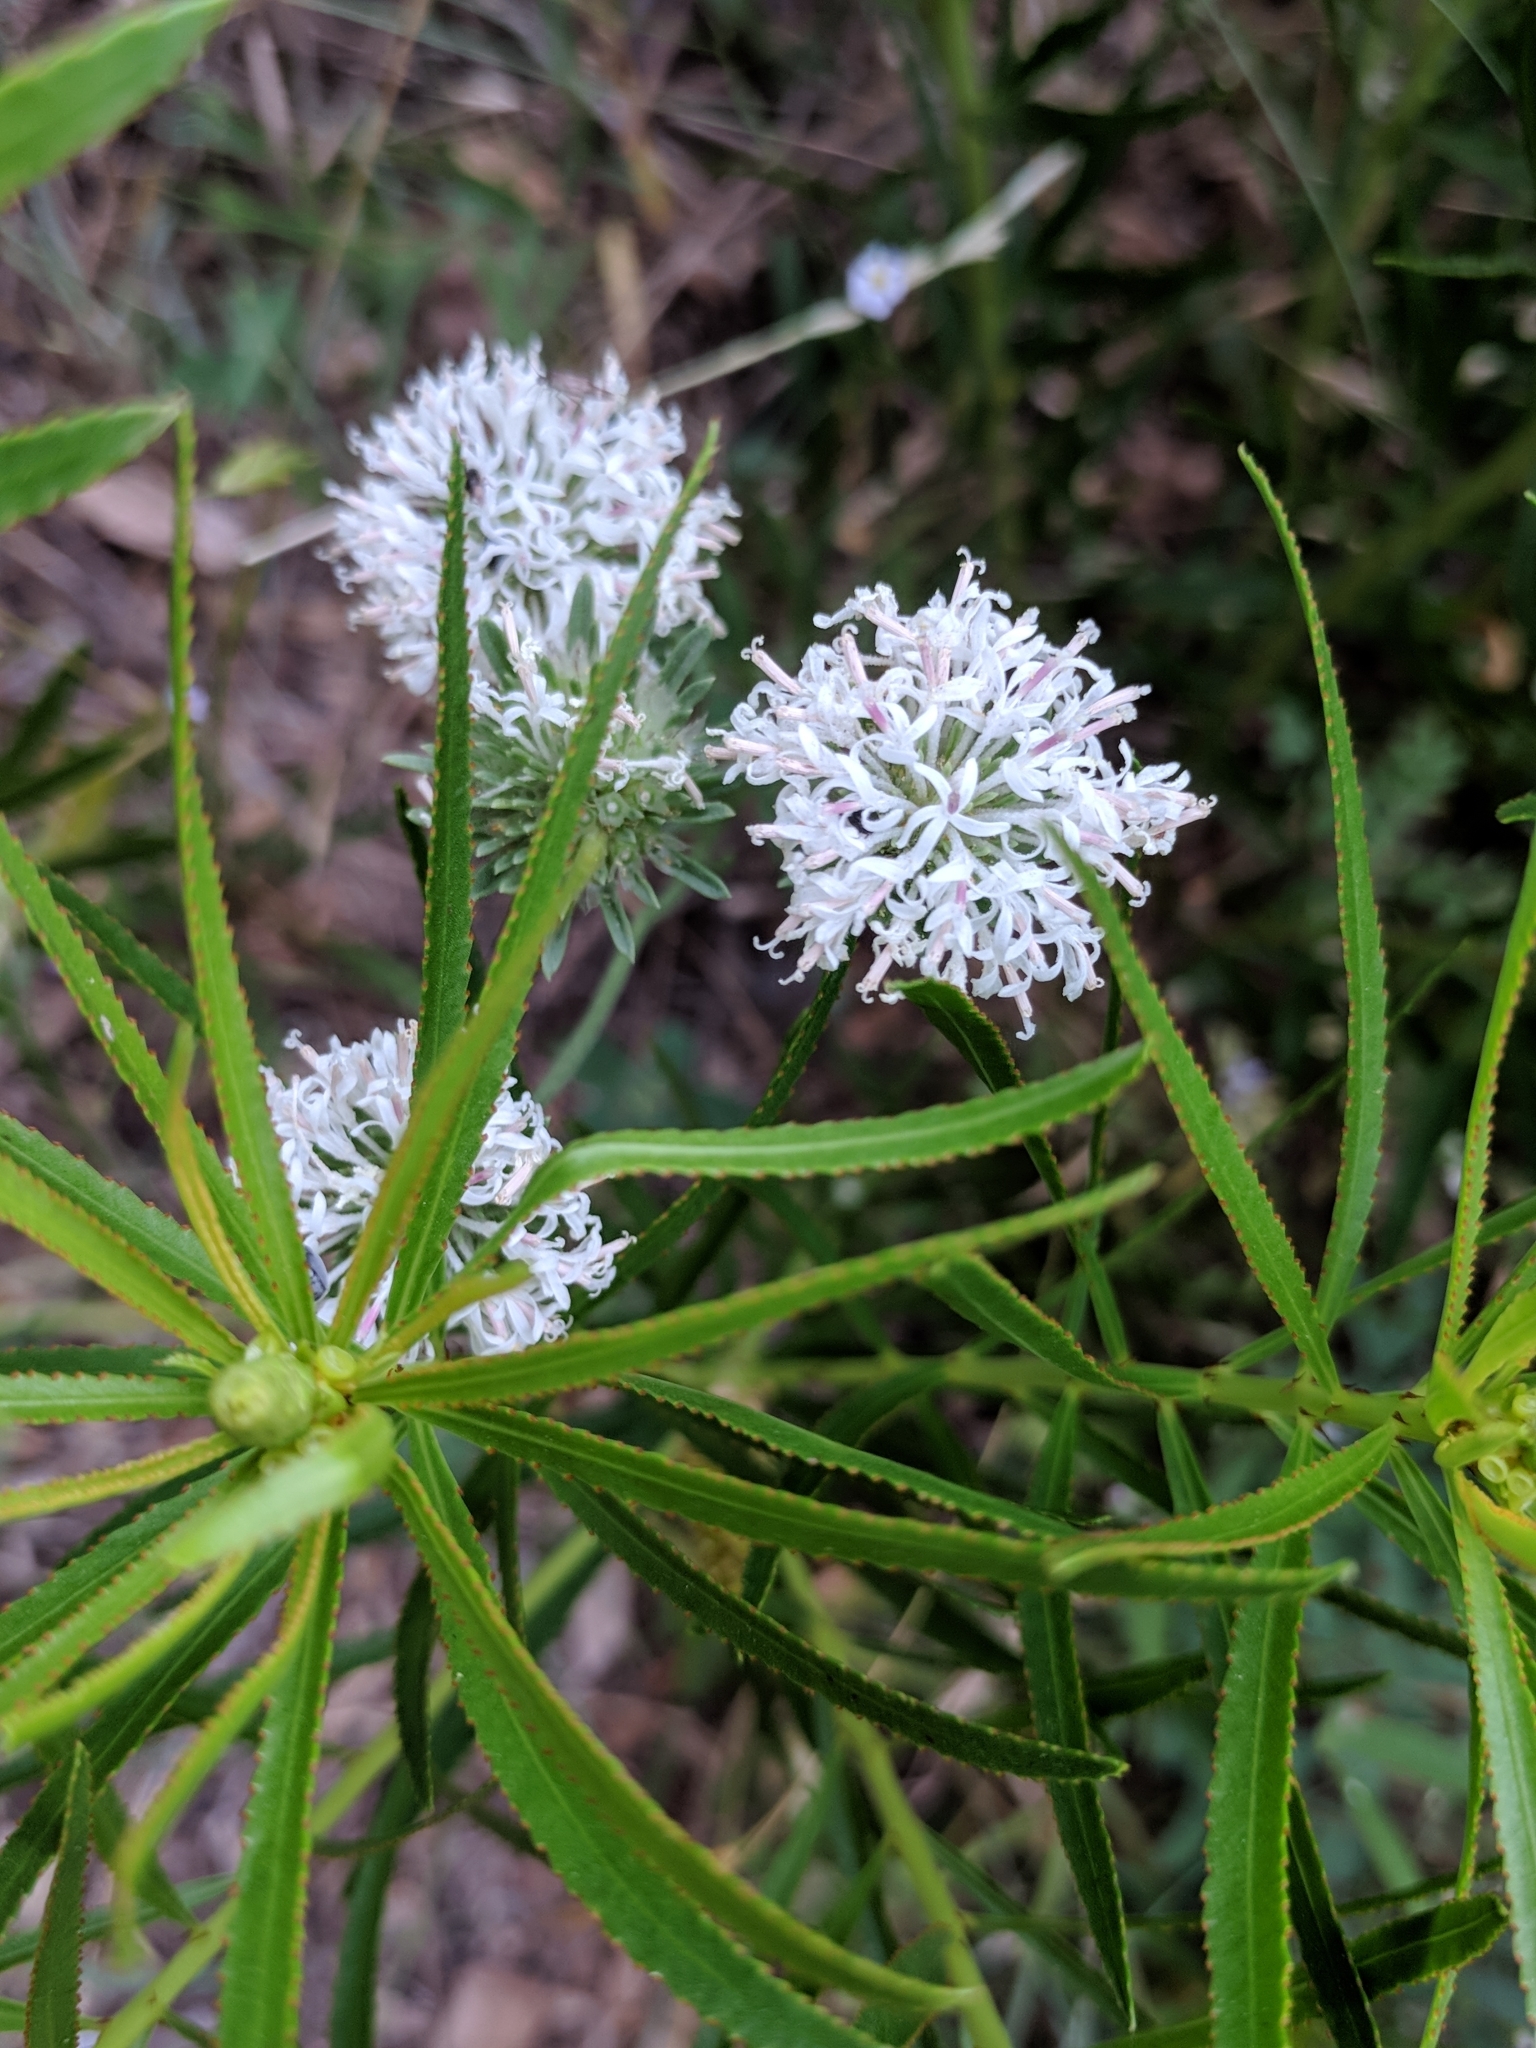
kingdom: Plantae
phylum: Tracheophyta
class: Magnoliopsida
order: Asterales
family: Asteraceae
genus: Marshallia
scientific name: Marshallia caespitosa
